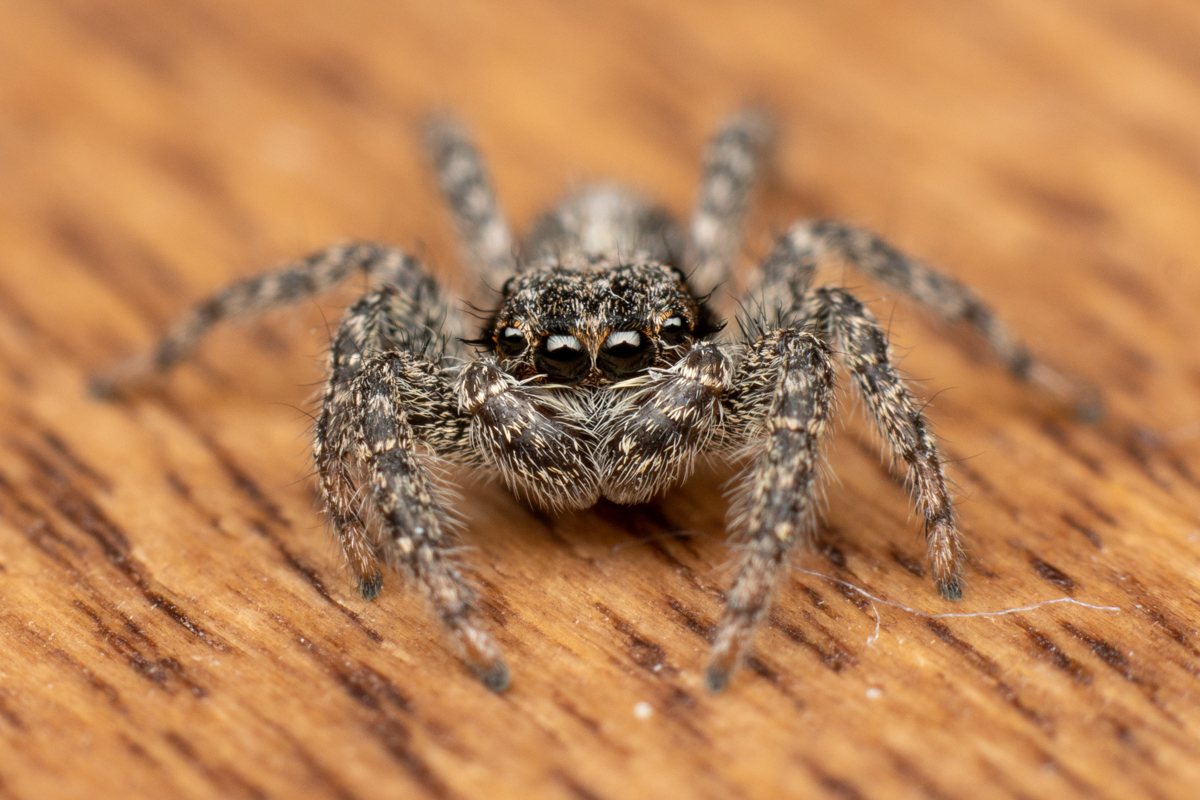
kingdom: Animalia
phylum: Arthropoda
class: Arachnida
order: Araneae
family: Salticidae
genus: Platycryptus
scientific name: Platycryptus californicus
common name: Jumping spiders
